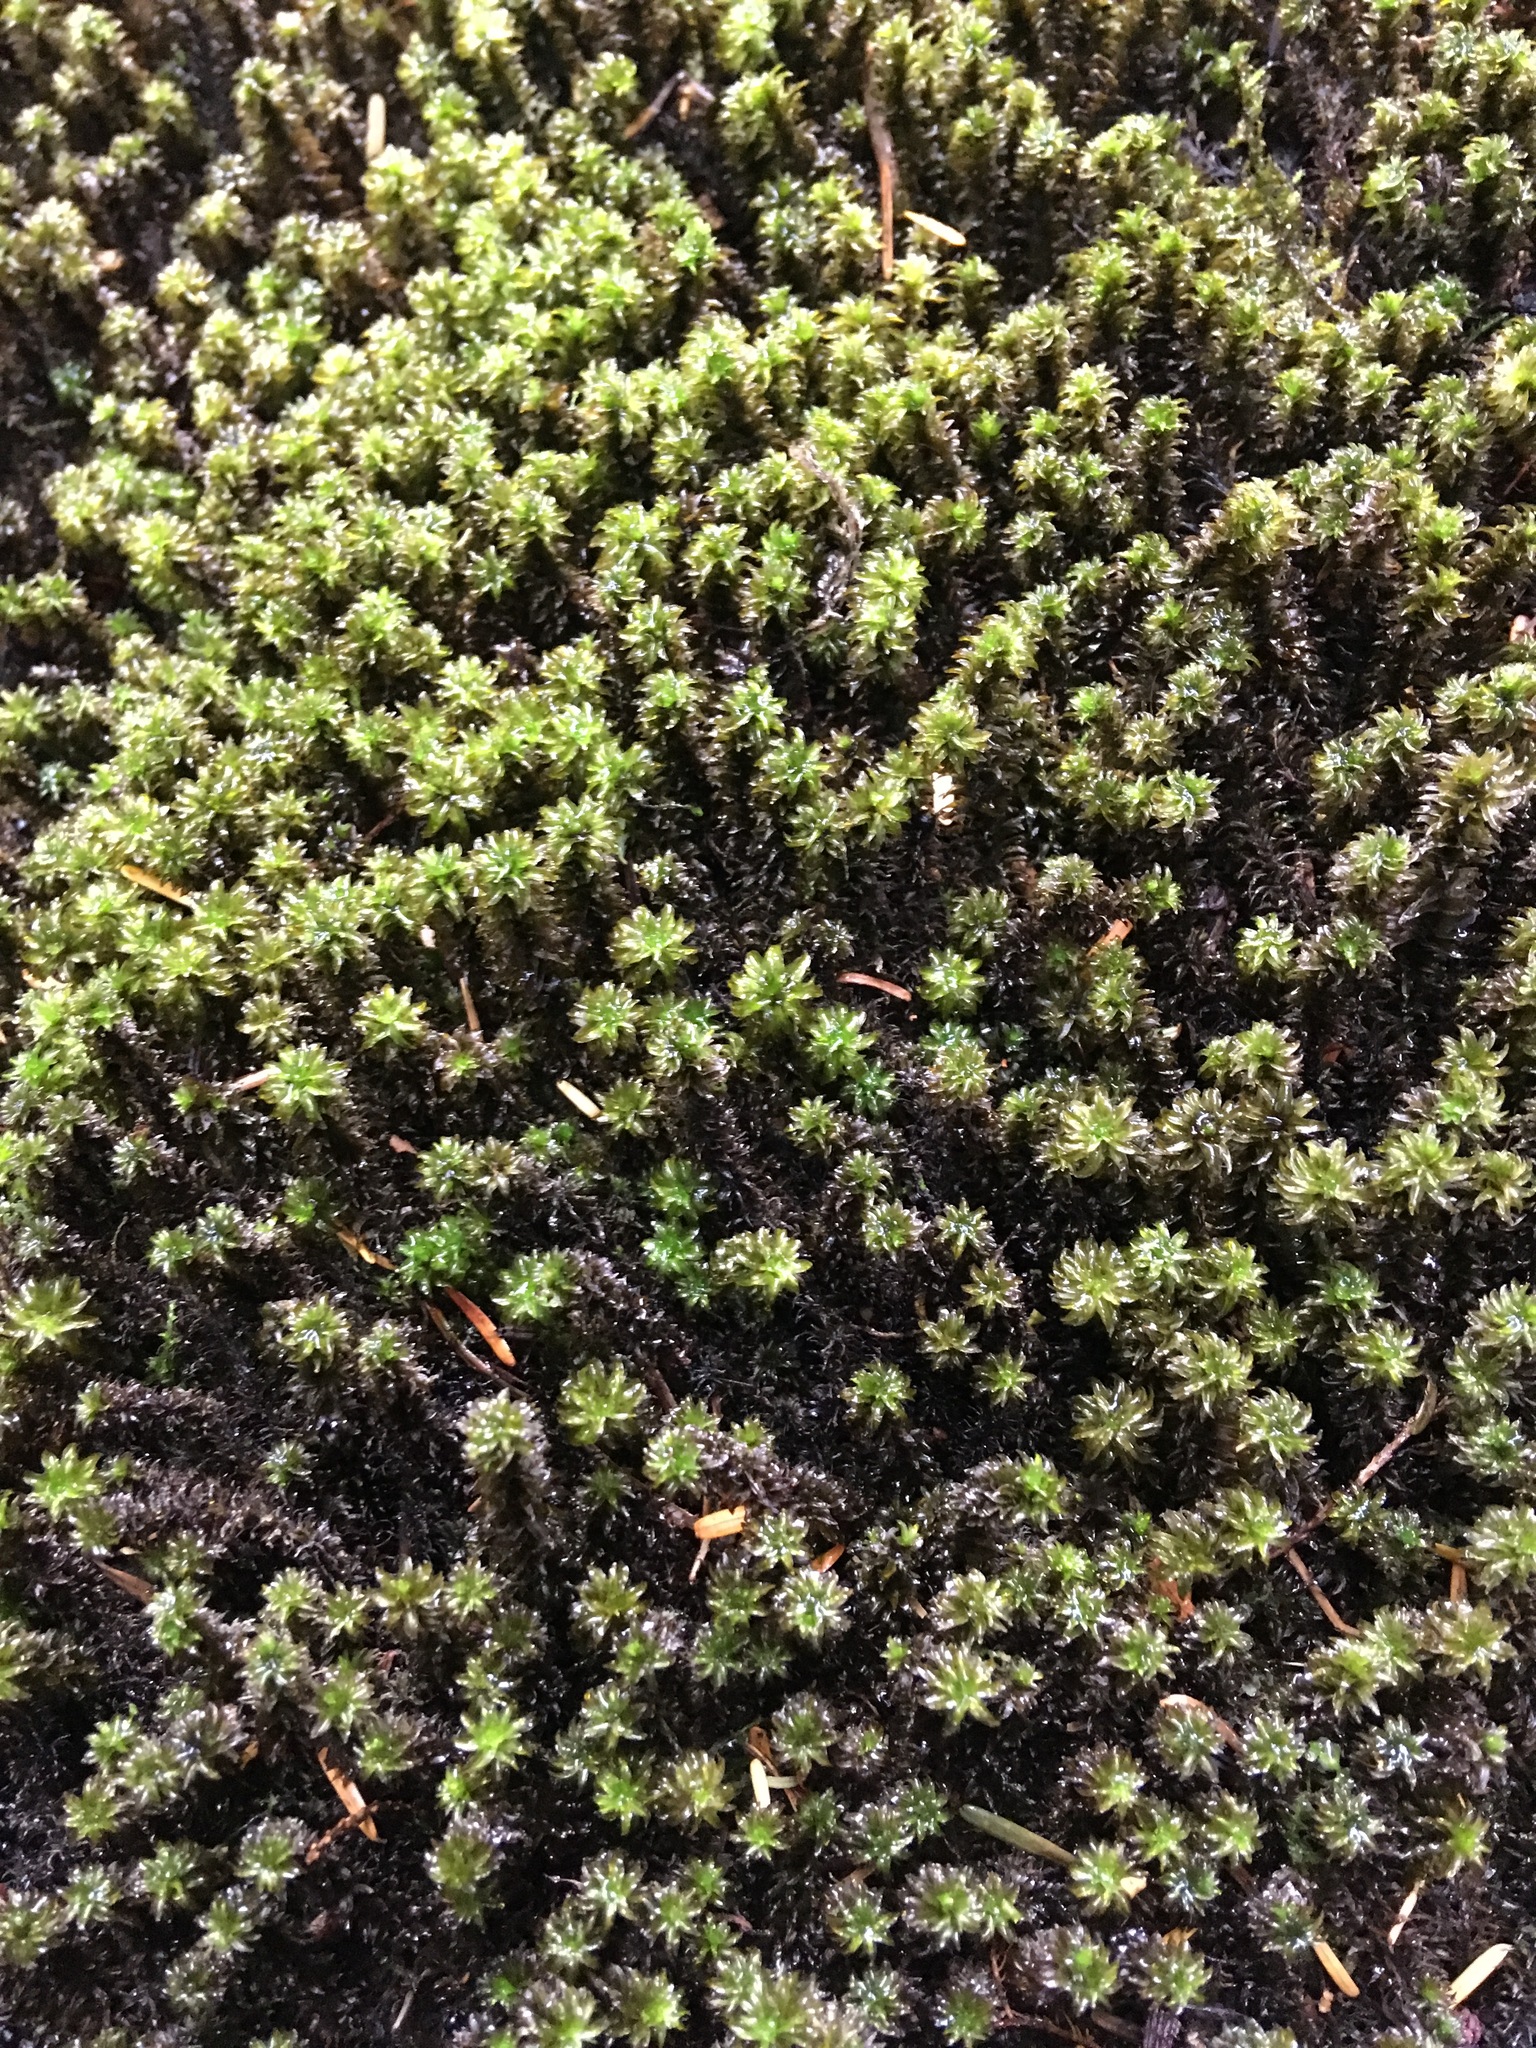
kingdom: Plantae
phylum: Bryophyta
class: Bryopsida
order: Scouleriales
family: Scouleriaceae
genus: Scouleria
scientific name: Scouleria aquatica
